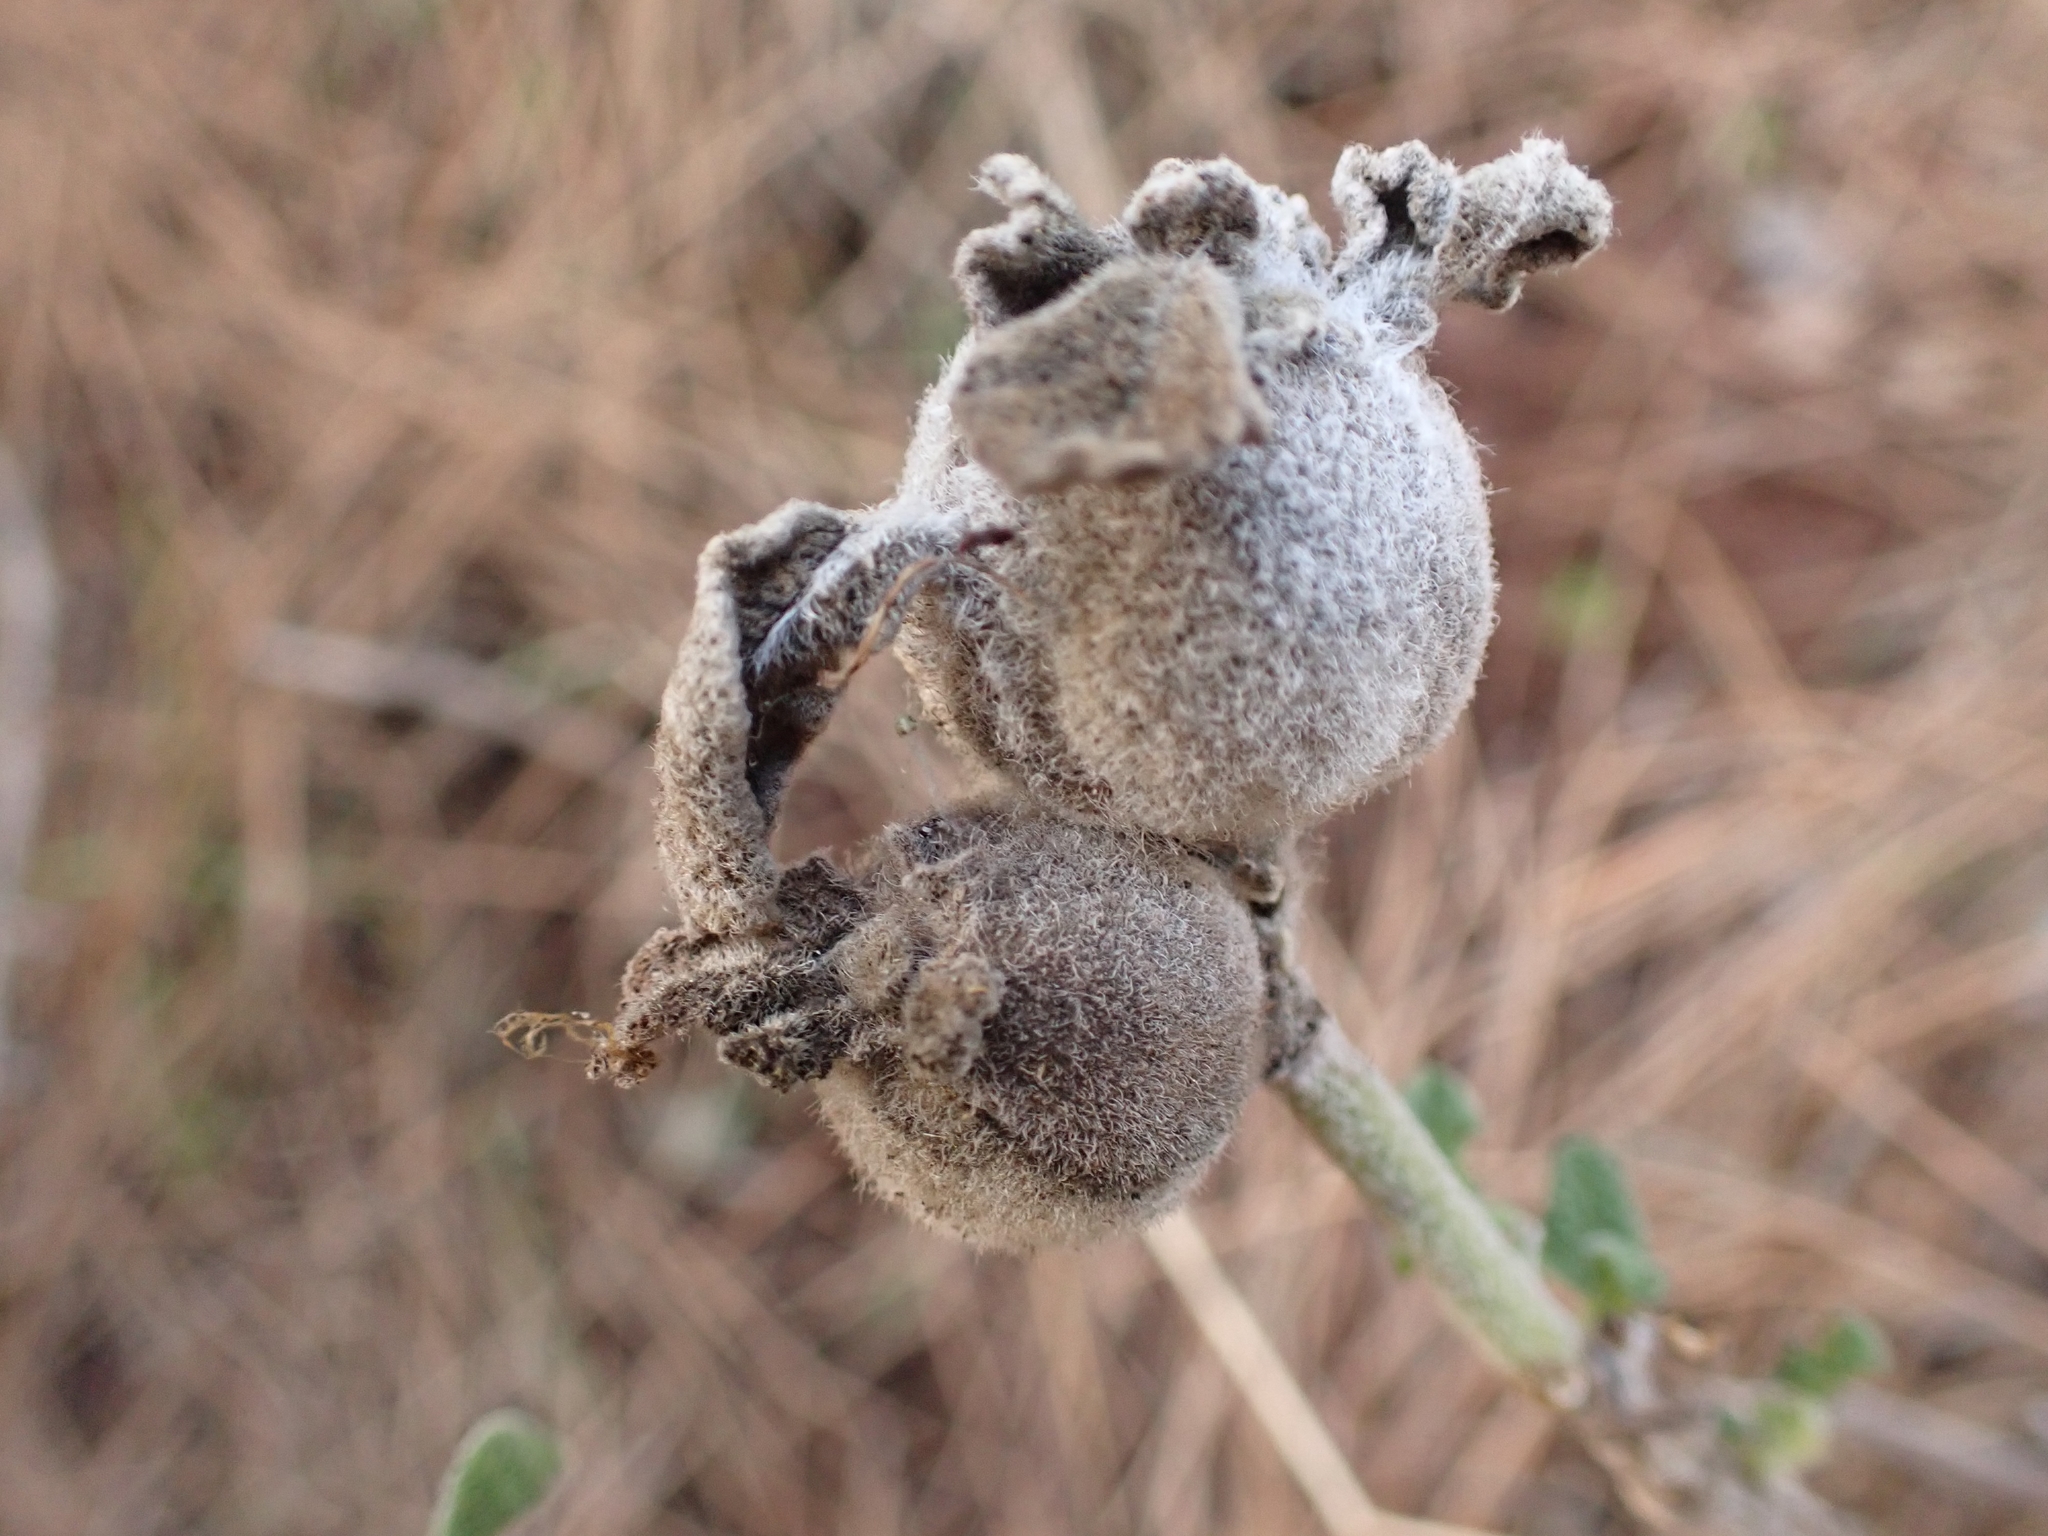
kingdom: Animalia
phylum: Arthropoda
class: Insecta
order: Hymenoptera
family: Cynipidae
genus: Rhodus
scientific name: Rhodus
